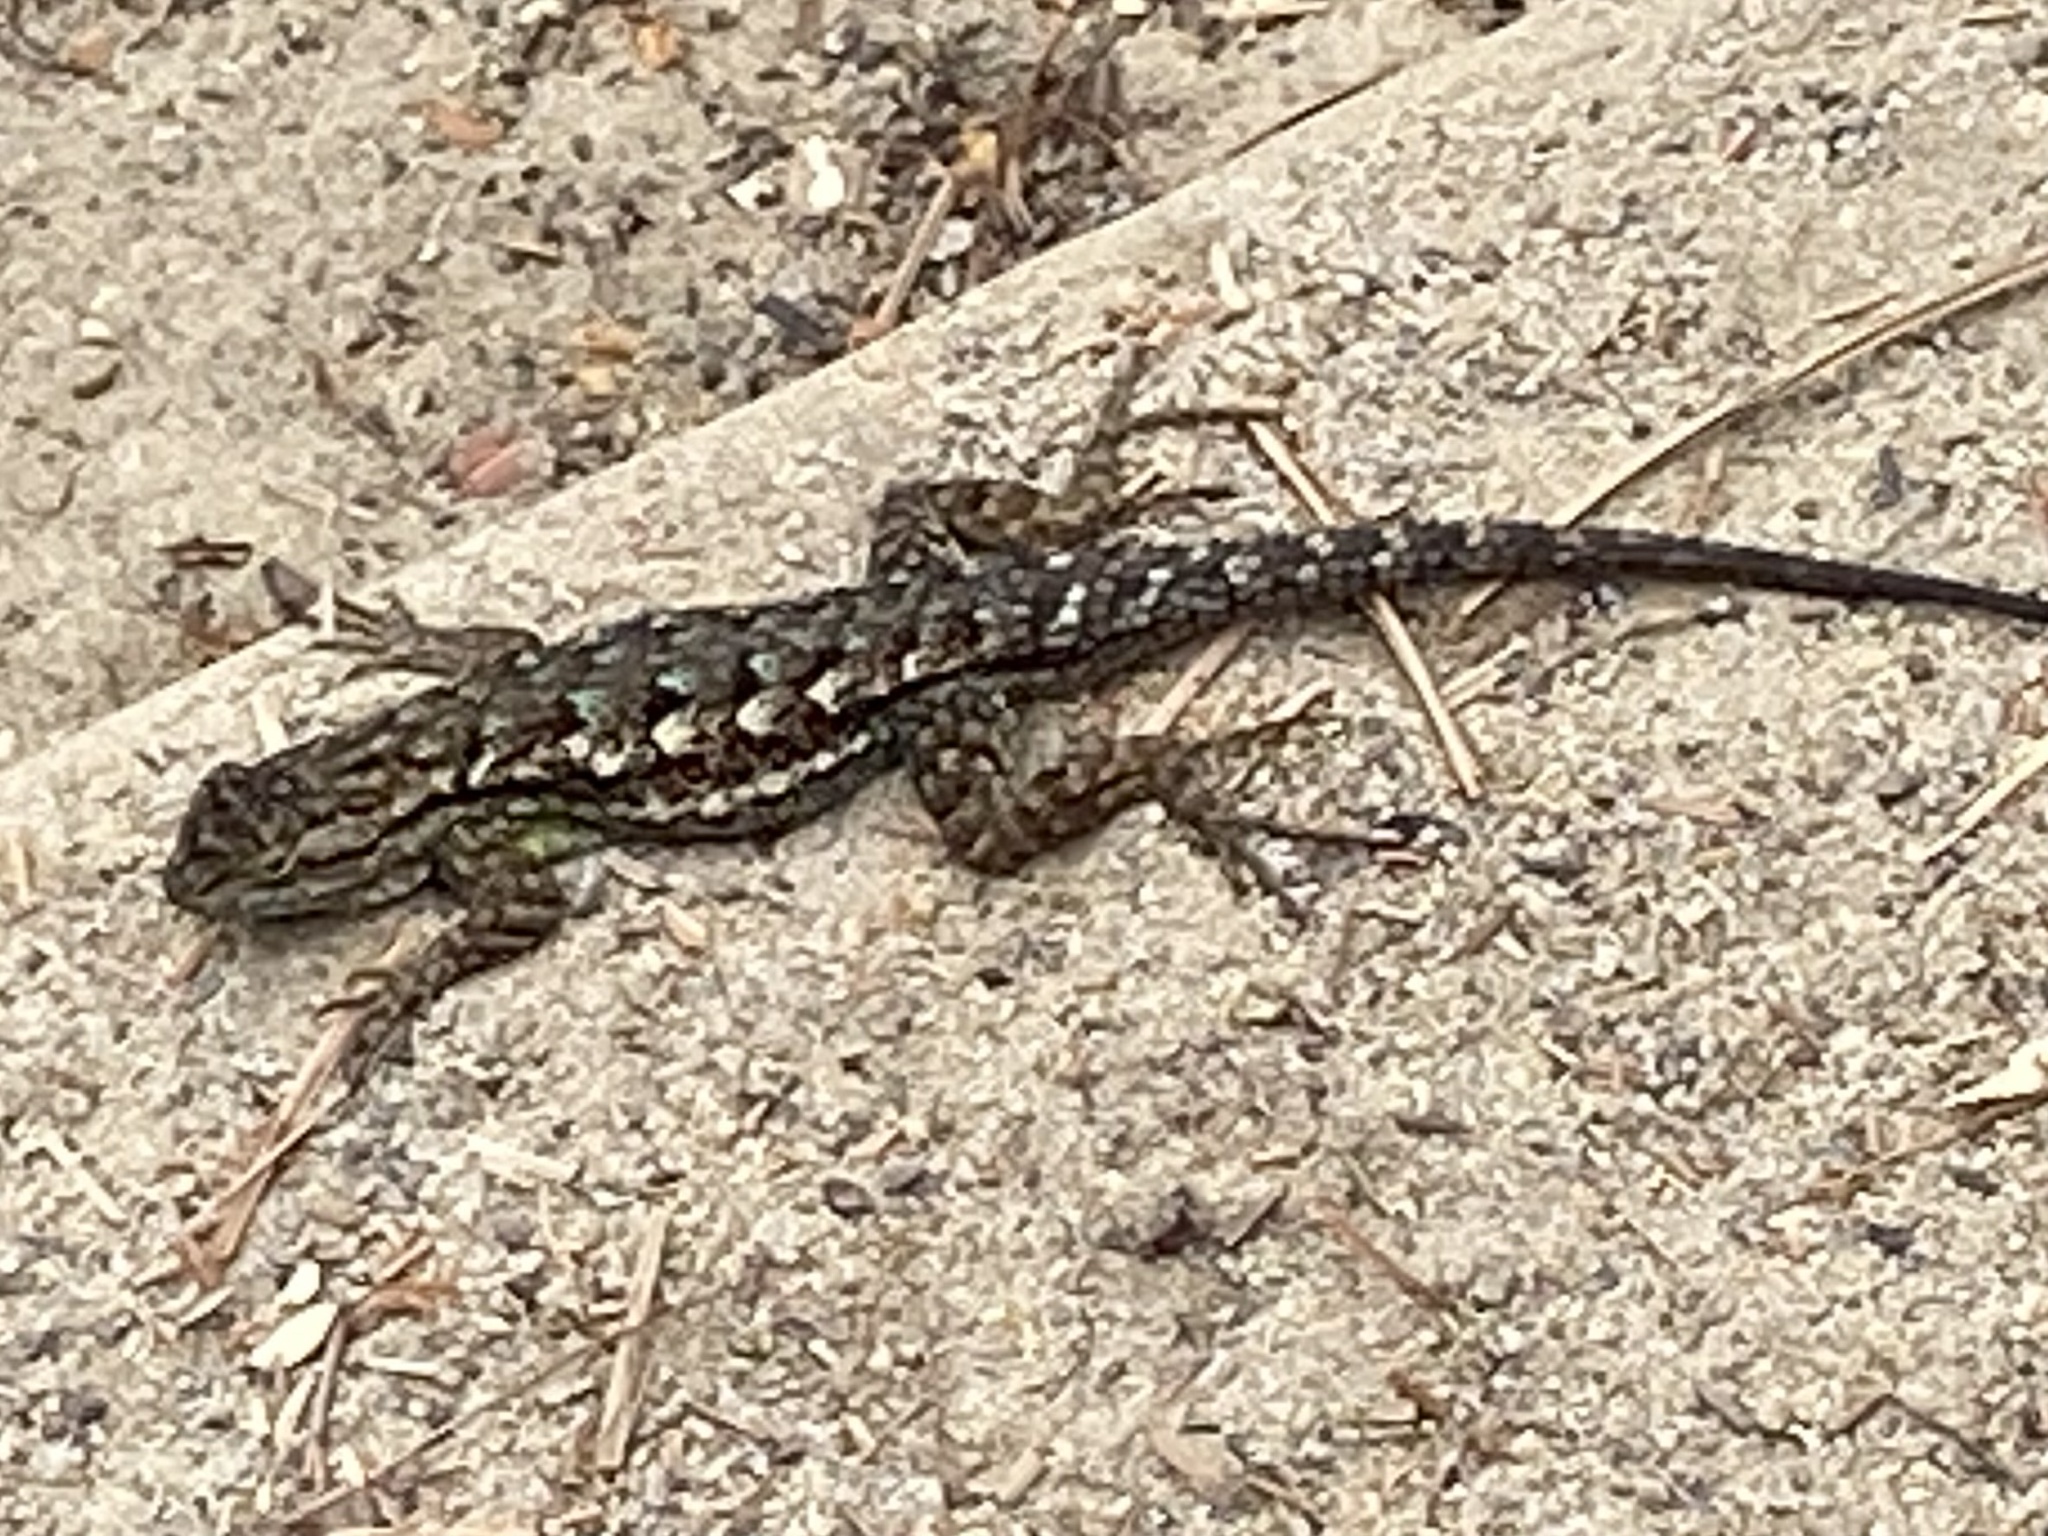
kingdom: Animalia
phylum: Chordata
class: Squamata
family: Phrynosomatidae
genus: Sceloporus
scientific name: Sceloporus occidentalis
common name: Western fence lizard
